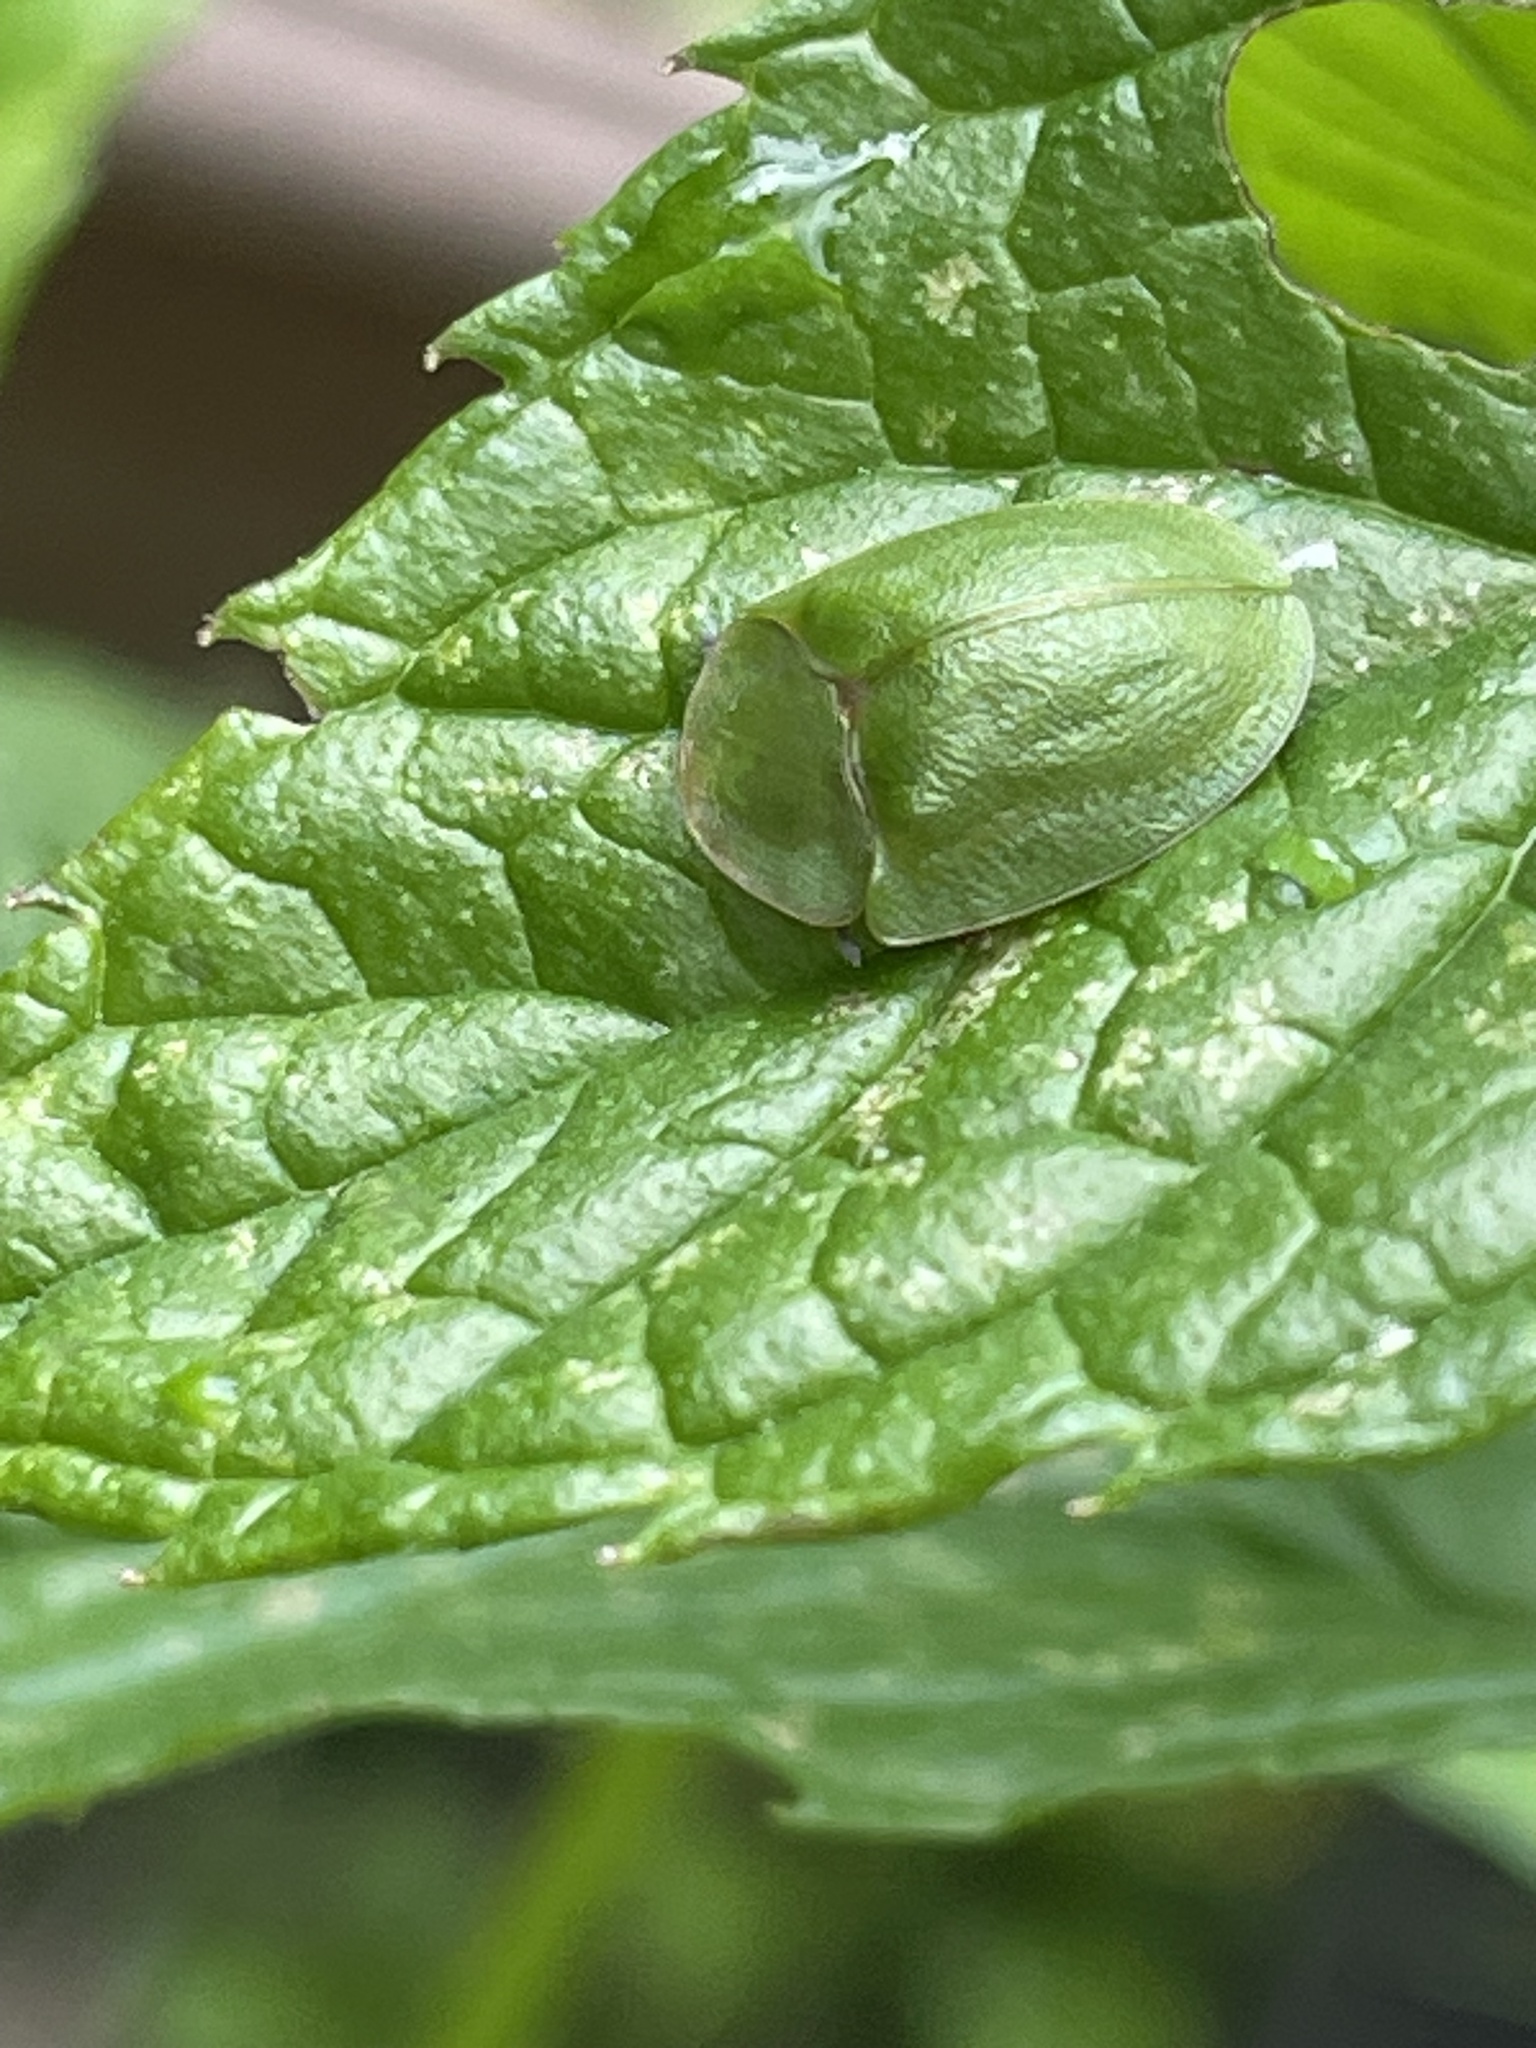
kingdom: Animalia
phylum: Arthropoda
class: Insecta
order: Coleoptera
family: Chrysomelidae
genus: Cassida
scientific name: Cassida viridis
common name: Green tortoise beetle
